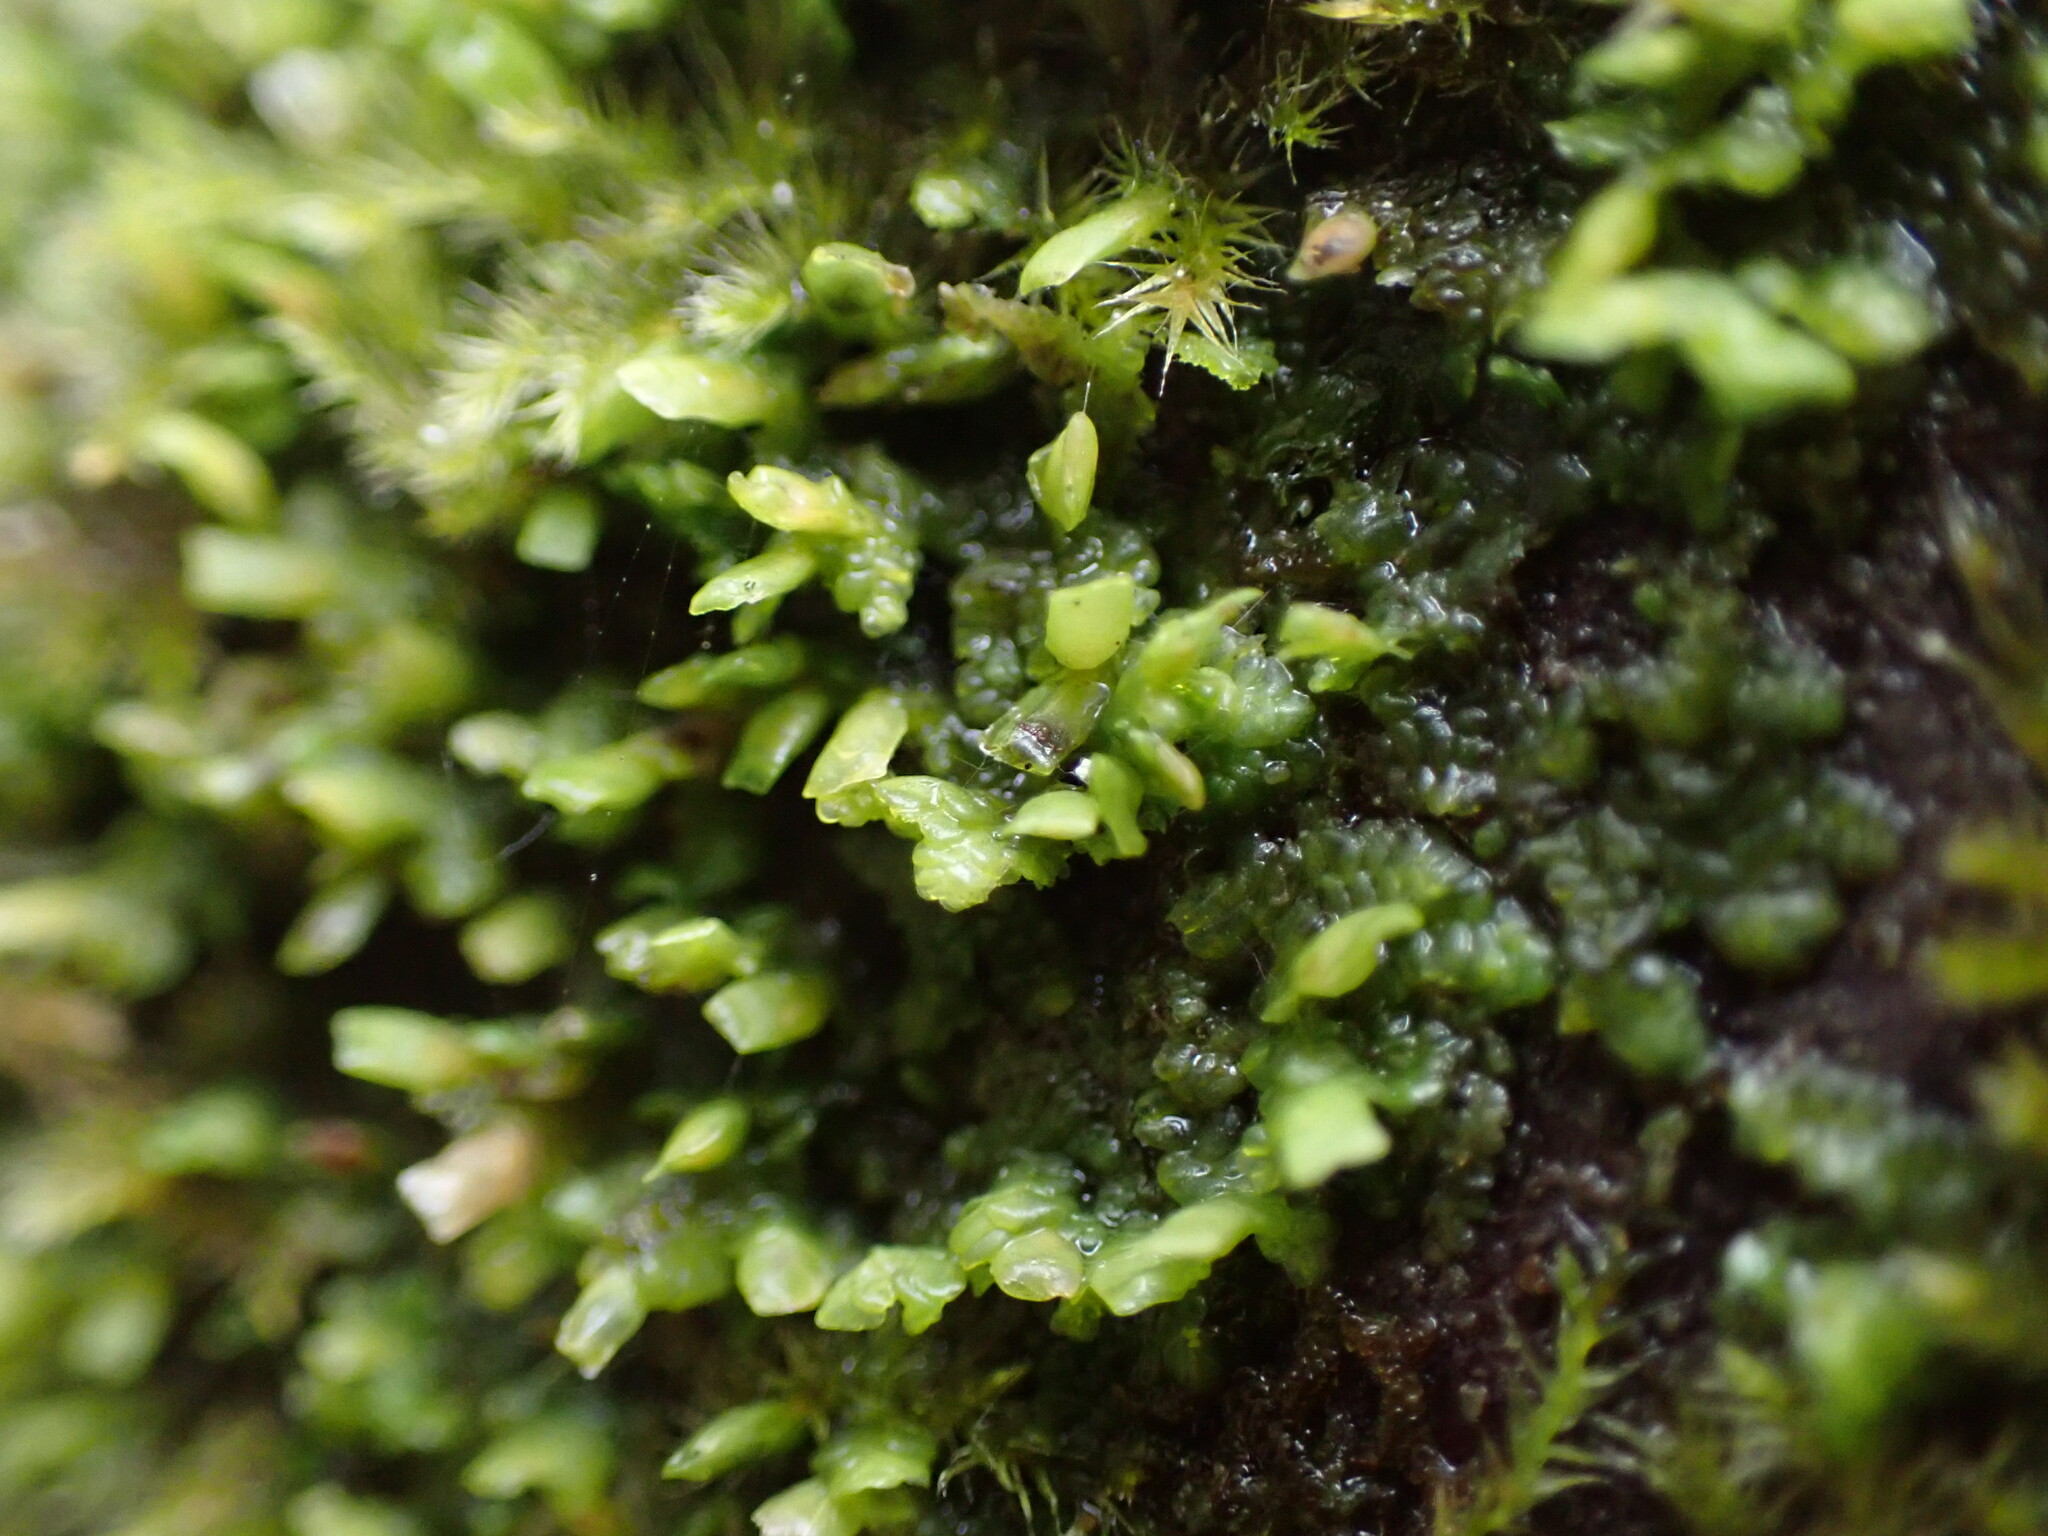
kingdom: Plantae
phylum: Marchantiophyta
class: Jungermanniopsida
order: Porellales
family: Radulaceae
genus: Radula
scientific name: Radula complanata
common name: Flat-leaved scalewort
